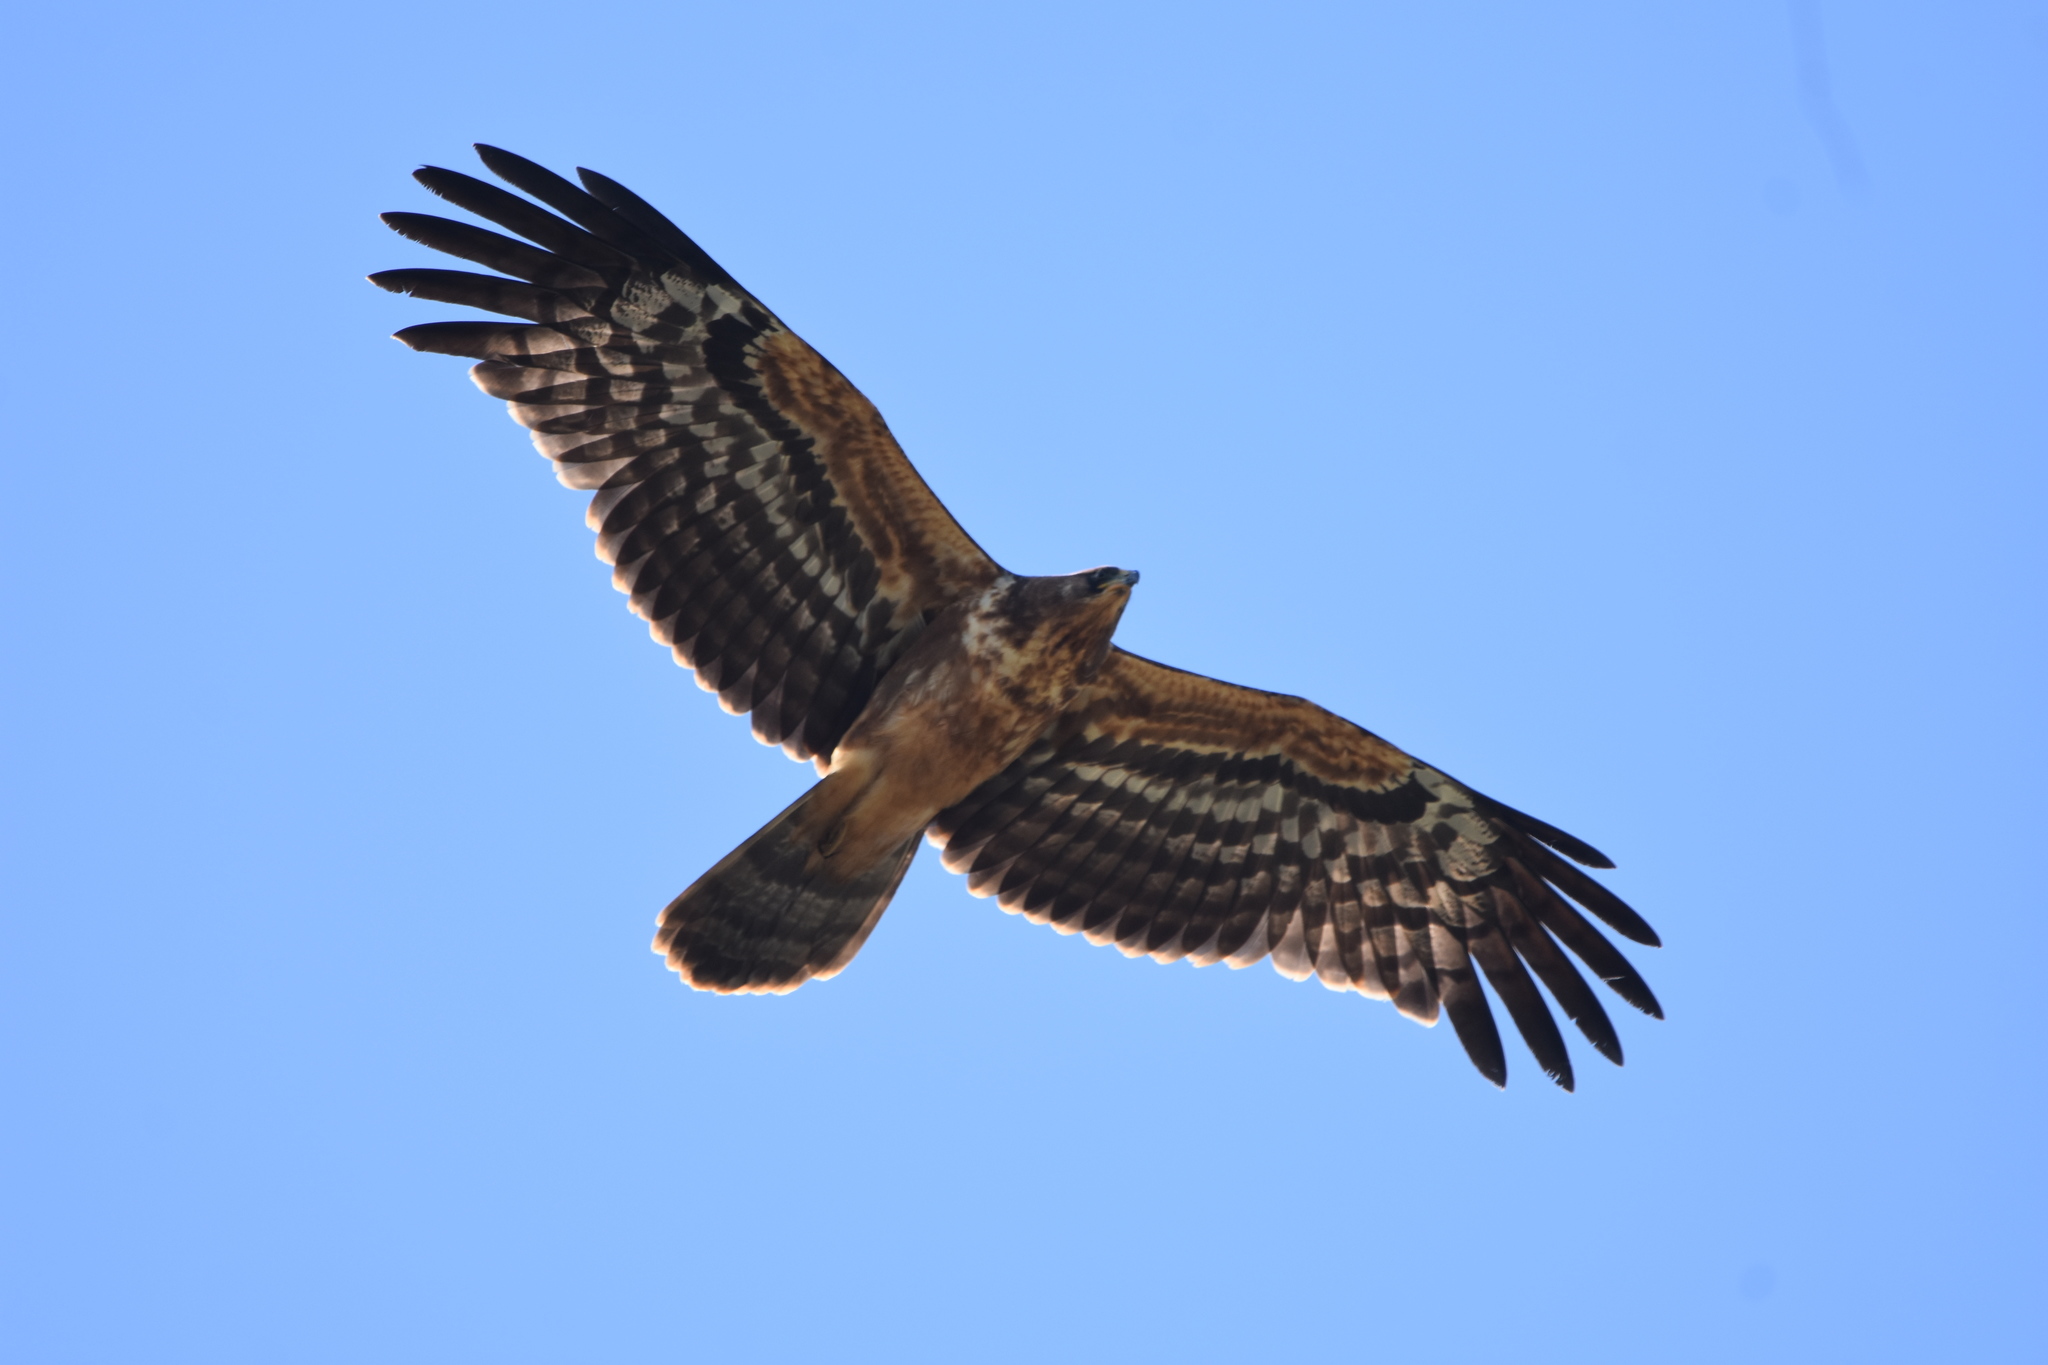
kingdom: Animalia
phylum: Chordata
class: Aves
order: Accipitriformes
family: Accipitridae
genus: Polyboroides
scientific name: Polyboroides typus
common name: African harrier-hawk
